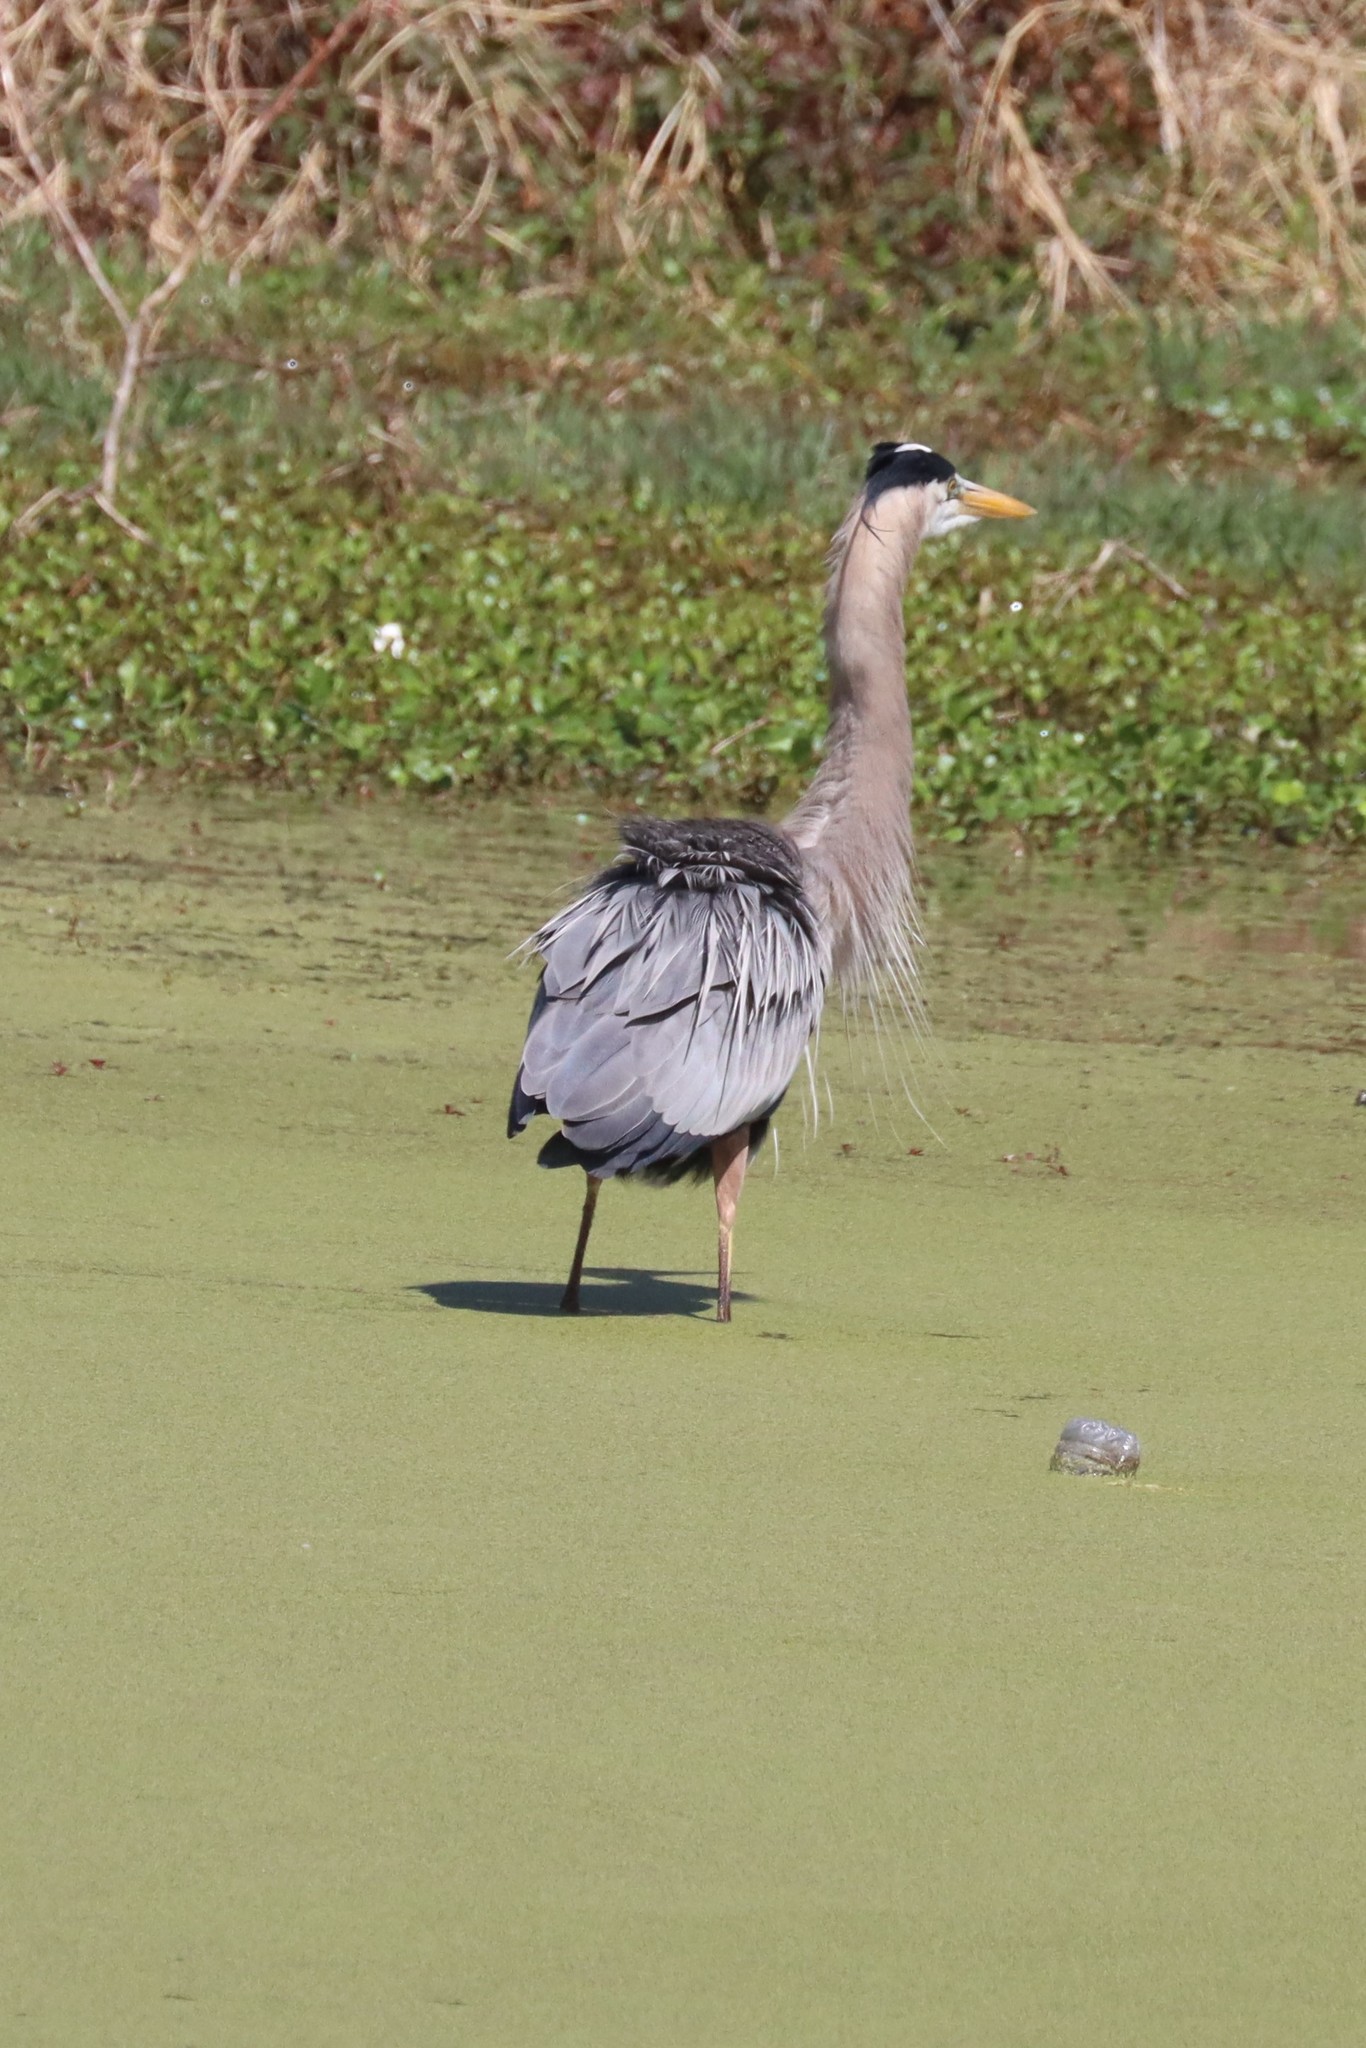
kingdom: Animalia
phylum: Chordata
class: Aves
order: Pelecaniformes
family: Ardeidae
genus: Ardea
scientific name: Ardea herodias
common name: Great blue heron
